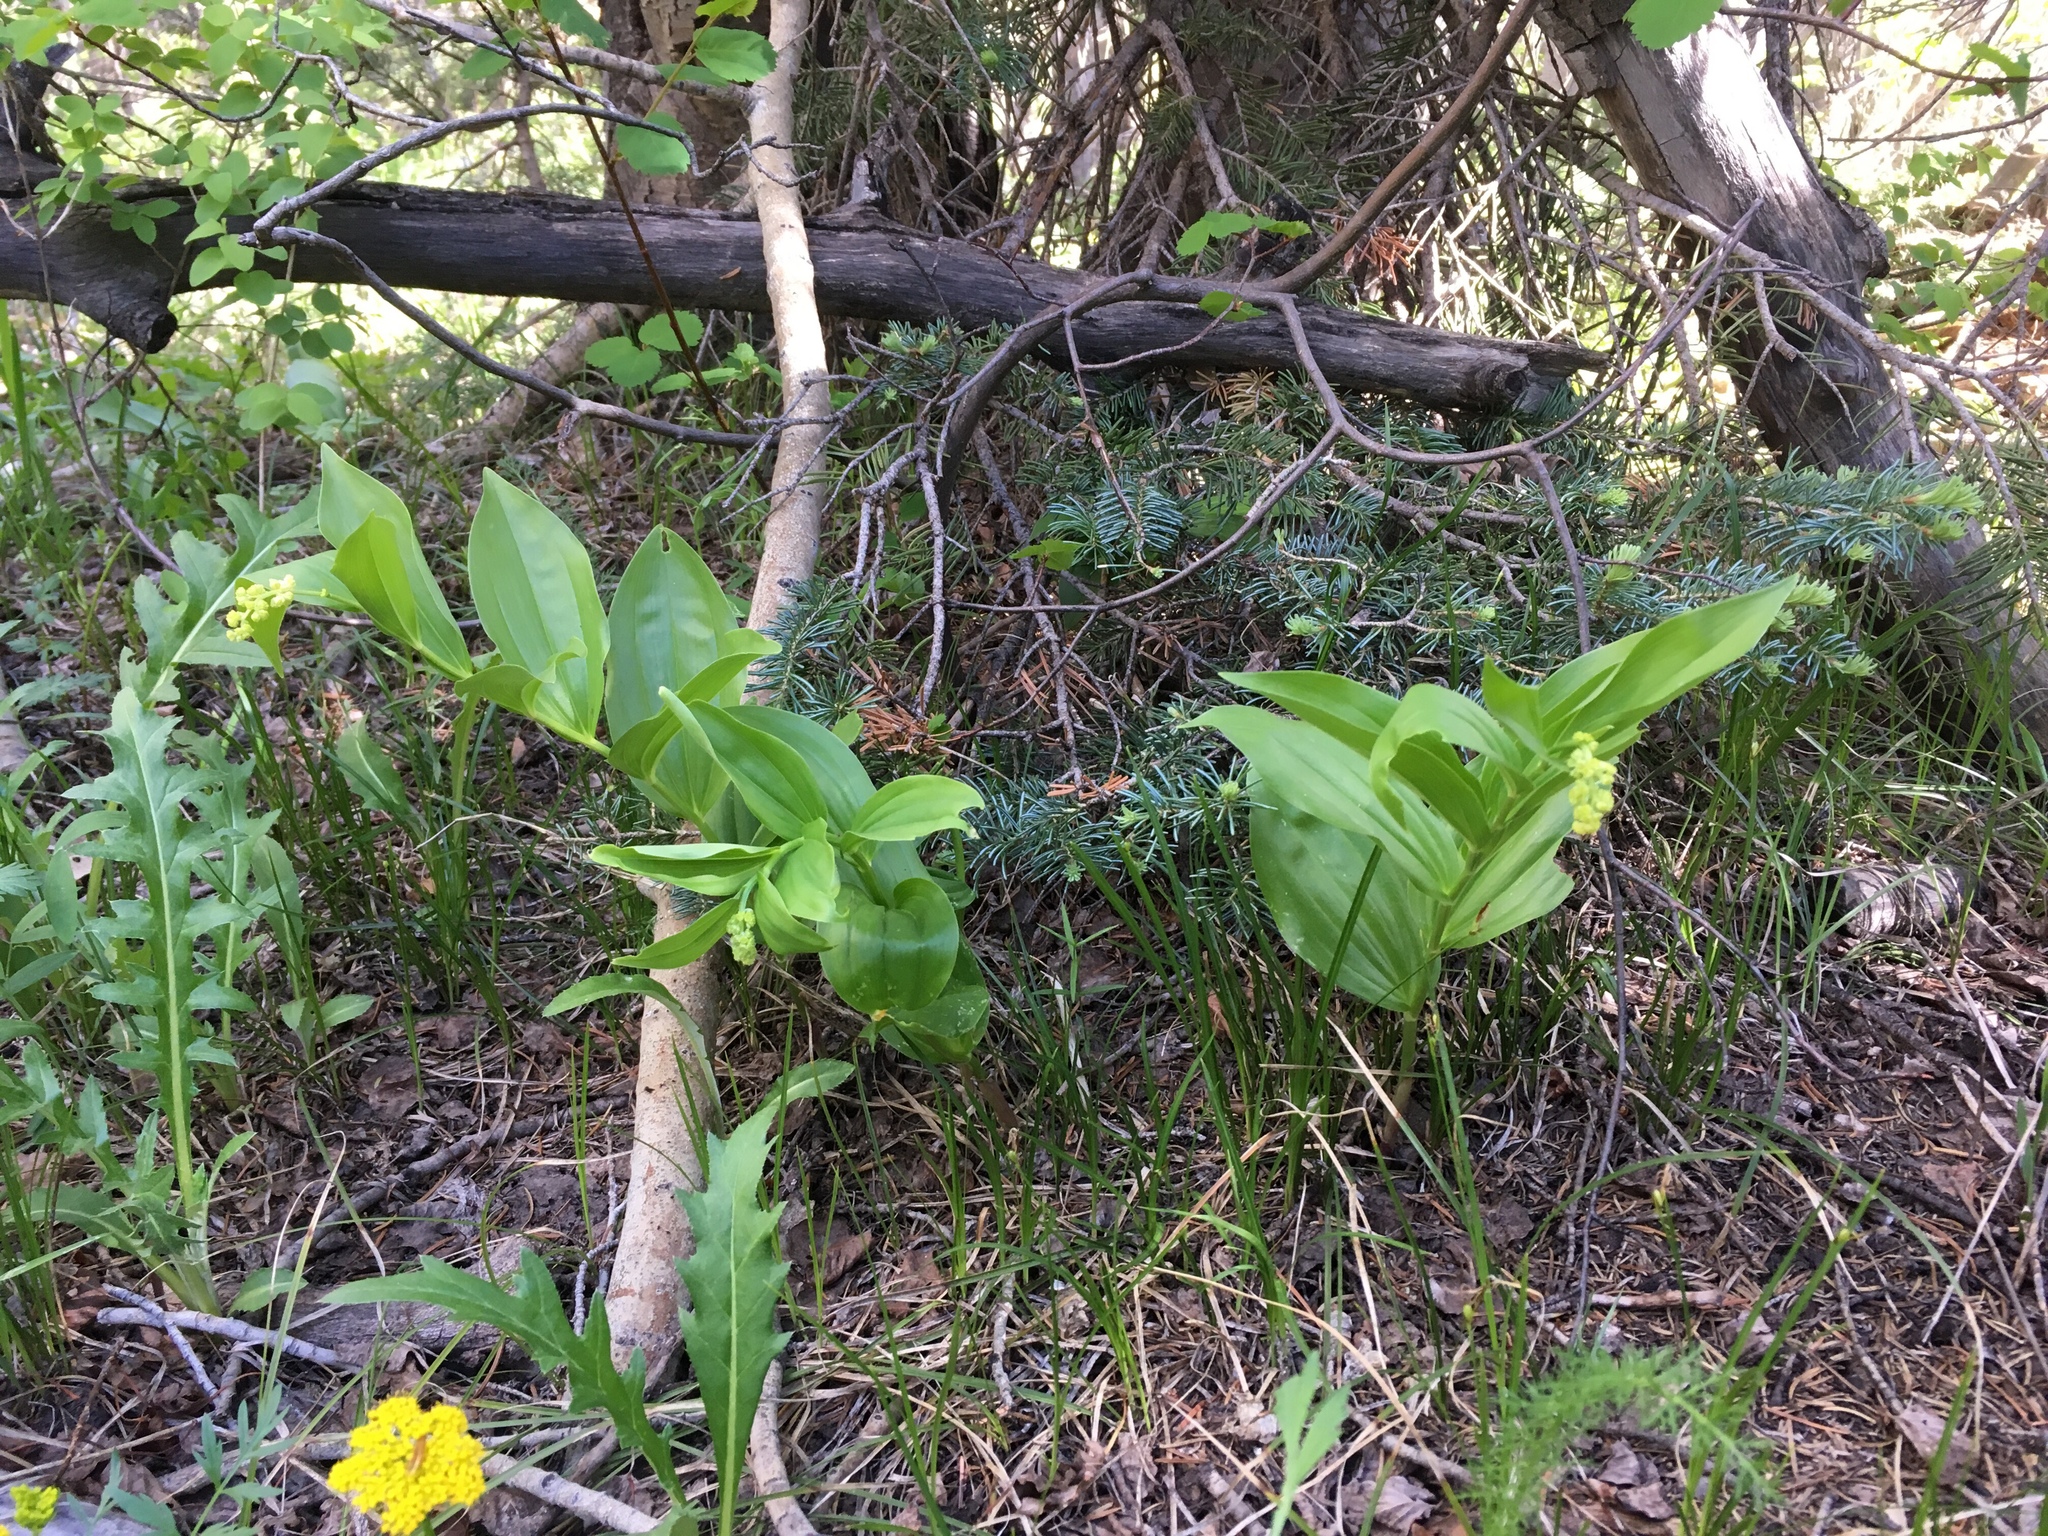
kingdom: Plantae
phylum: Tracheophyta
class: Liliopsida
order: Asparagales
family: Asparagaceae
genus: Maianthemum
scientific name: Maianthemum racemosum
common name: False spikenard
